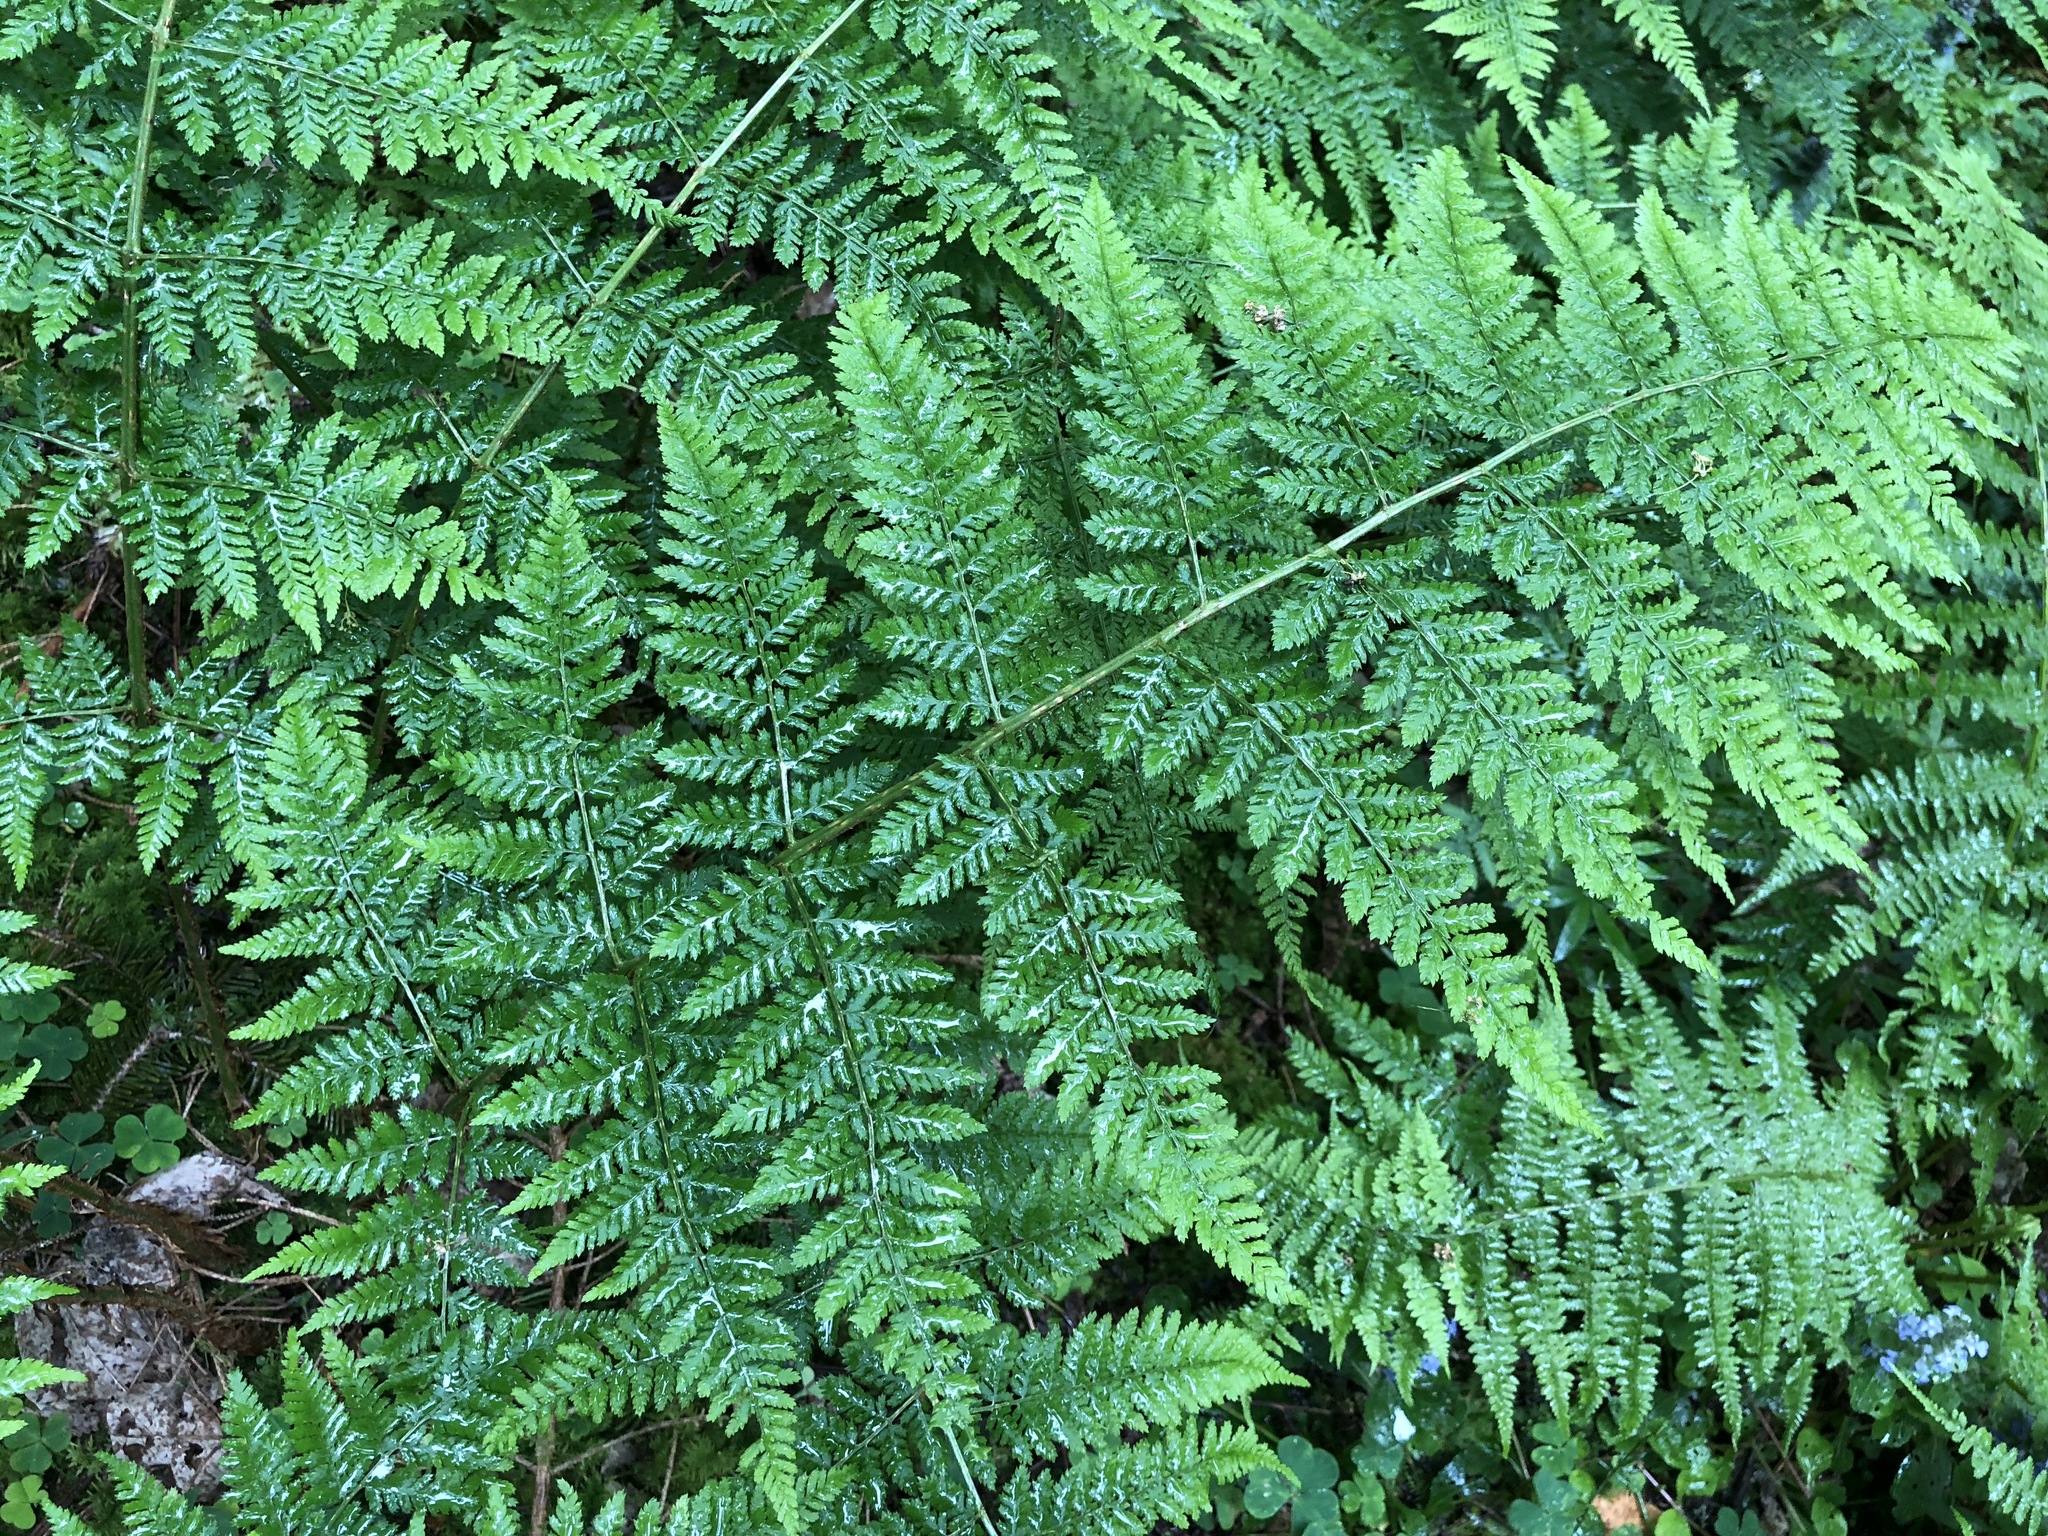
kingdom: Plantae
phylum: Tracheophyta
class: Polypodiopsida
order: Polypodiales
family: Dryopteridaceae
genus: Dryopteris
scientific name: Dryopteris dilatata
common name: Broad buckler-fern
